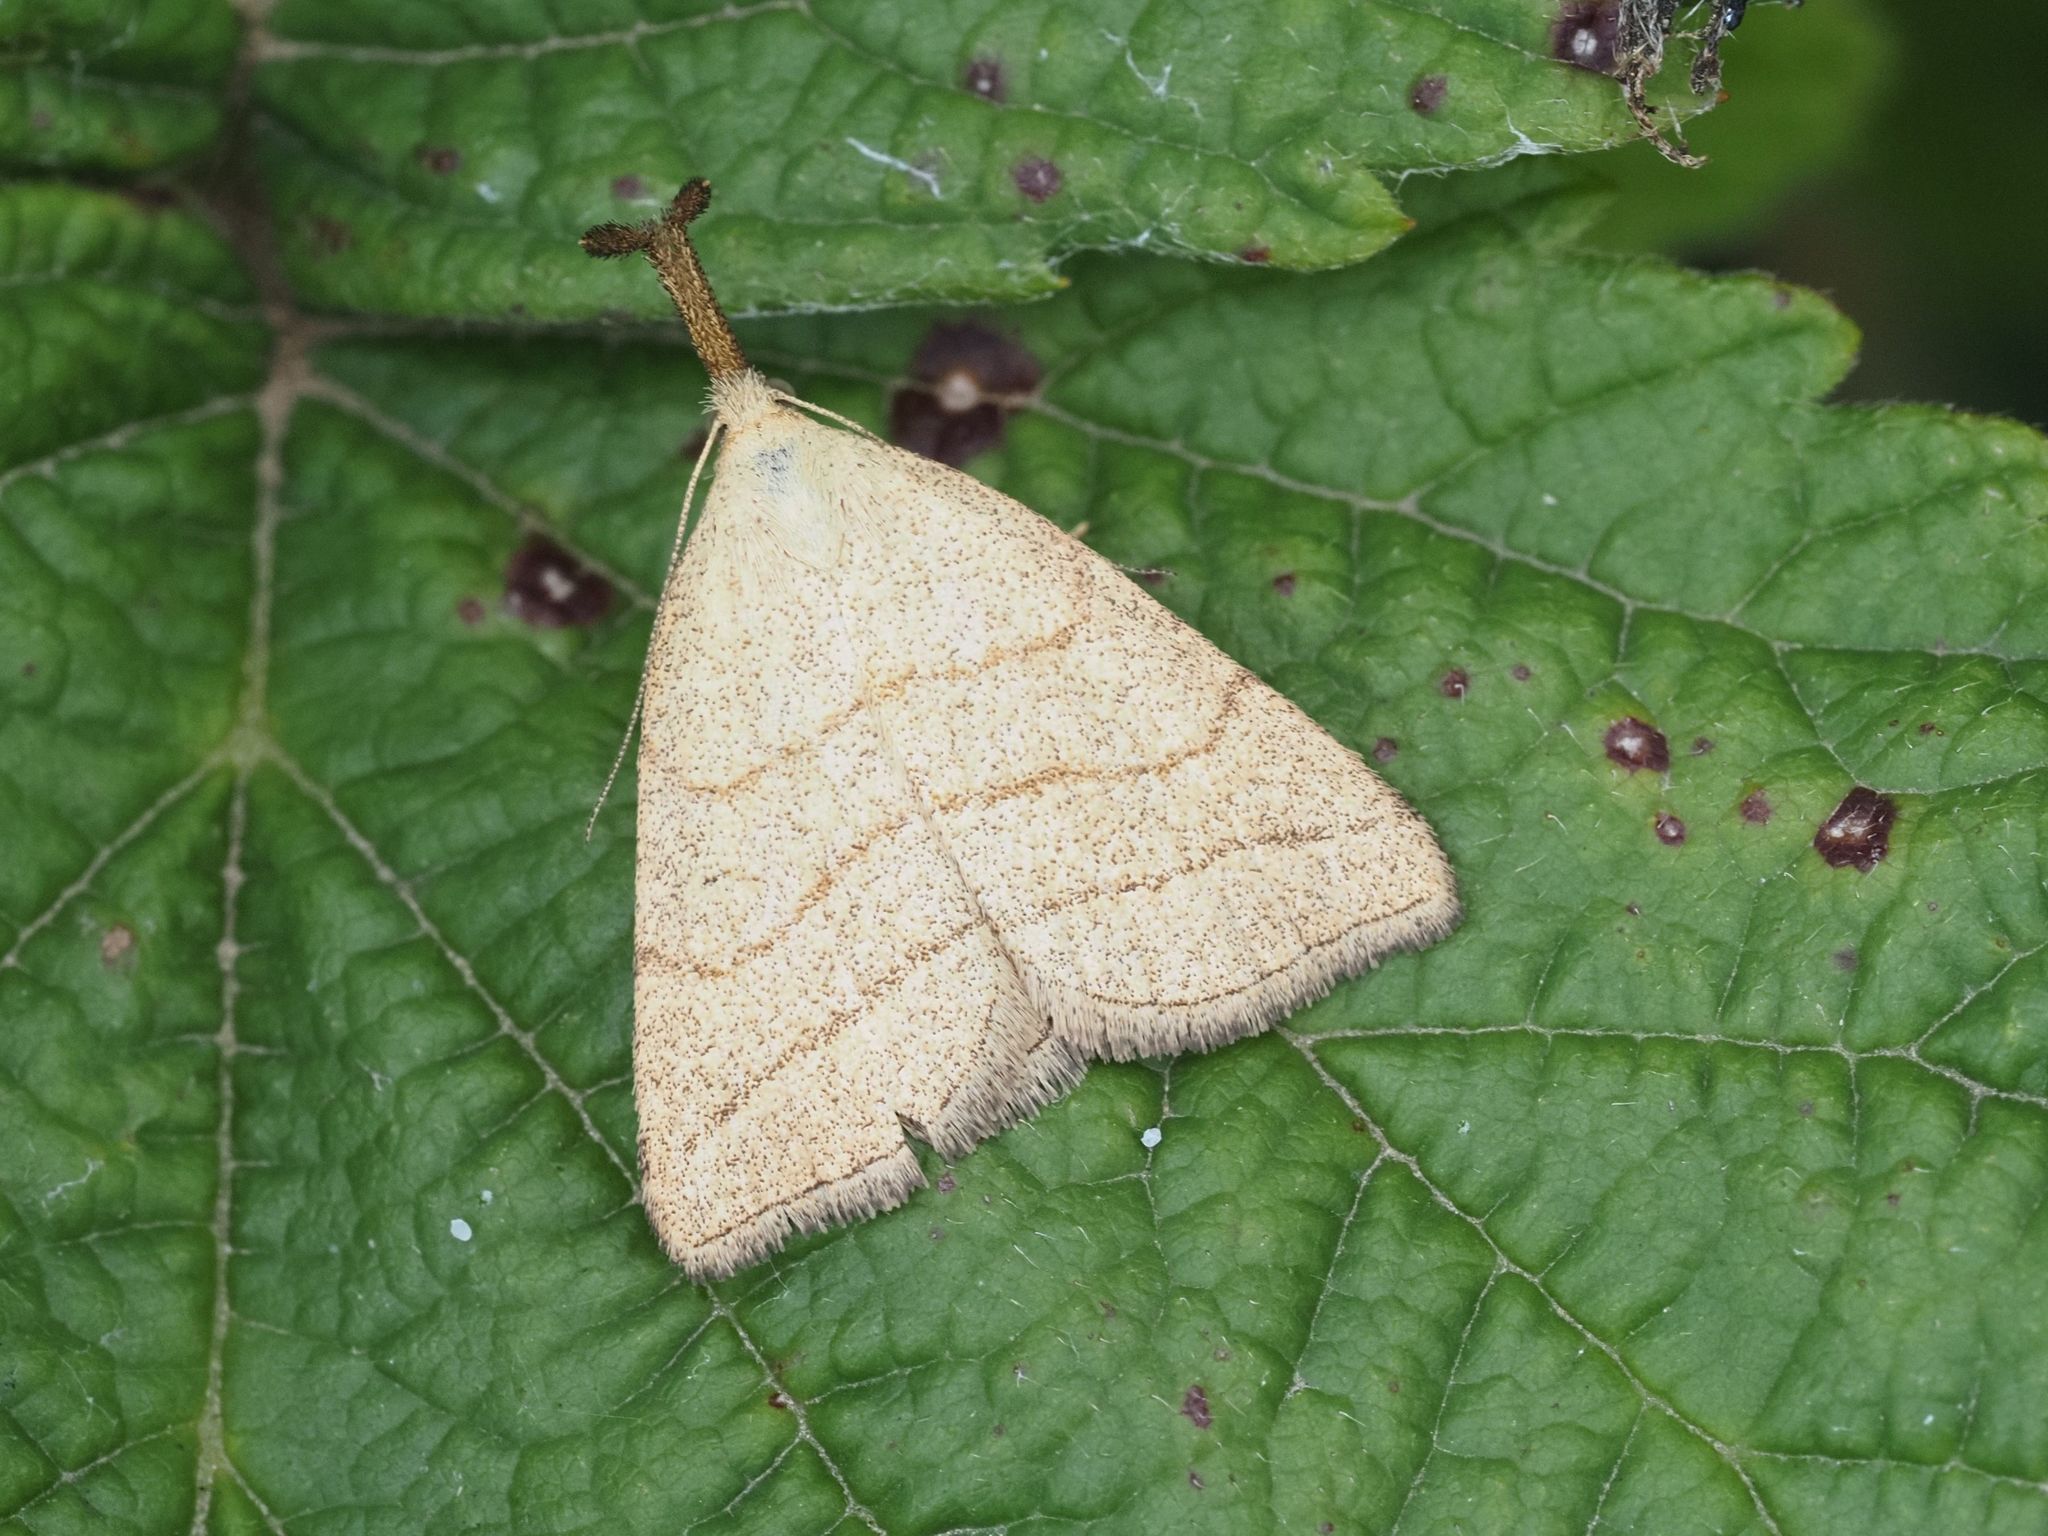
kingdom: Animalia
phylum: Arthropoda
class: Insecta
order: Lepidoptera
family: Erebidae
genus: Polypogon
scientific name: Polypogon tentacularia
